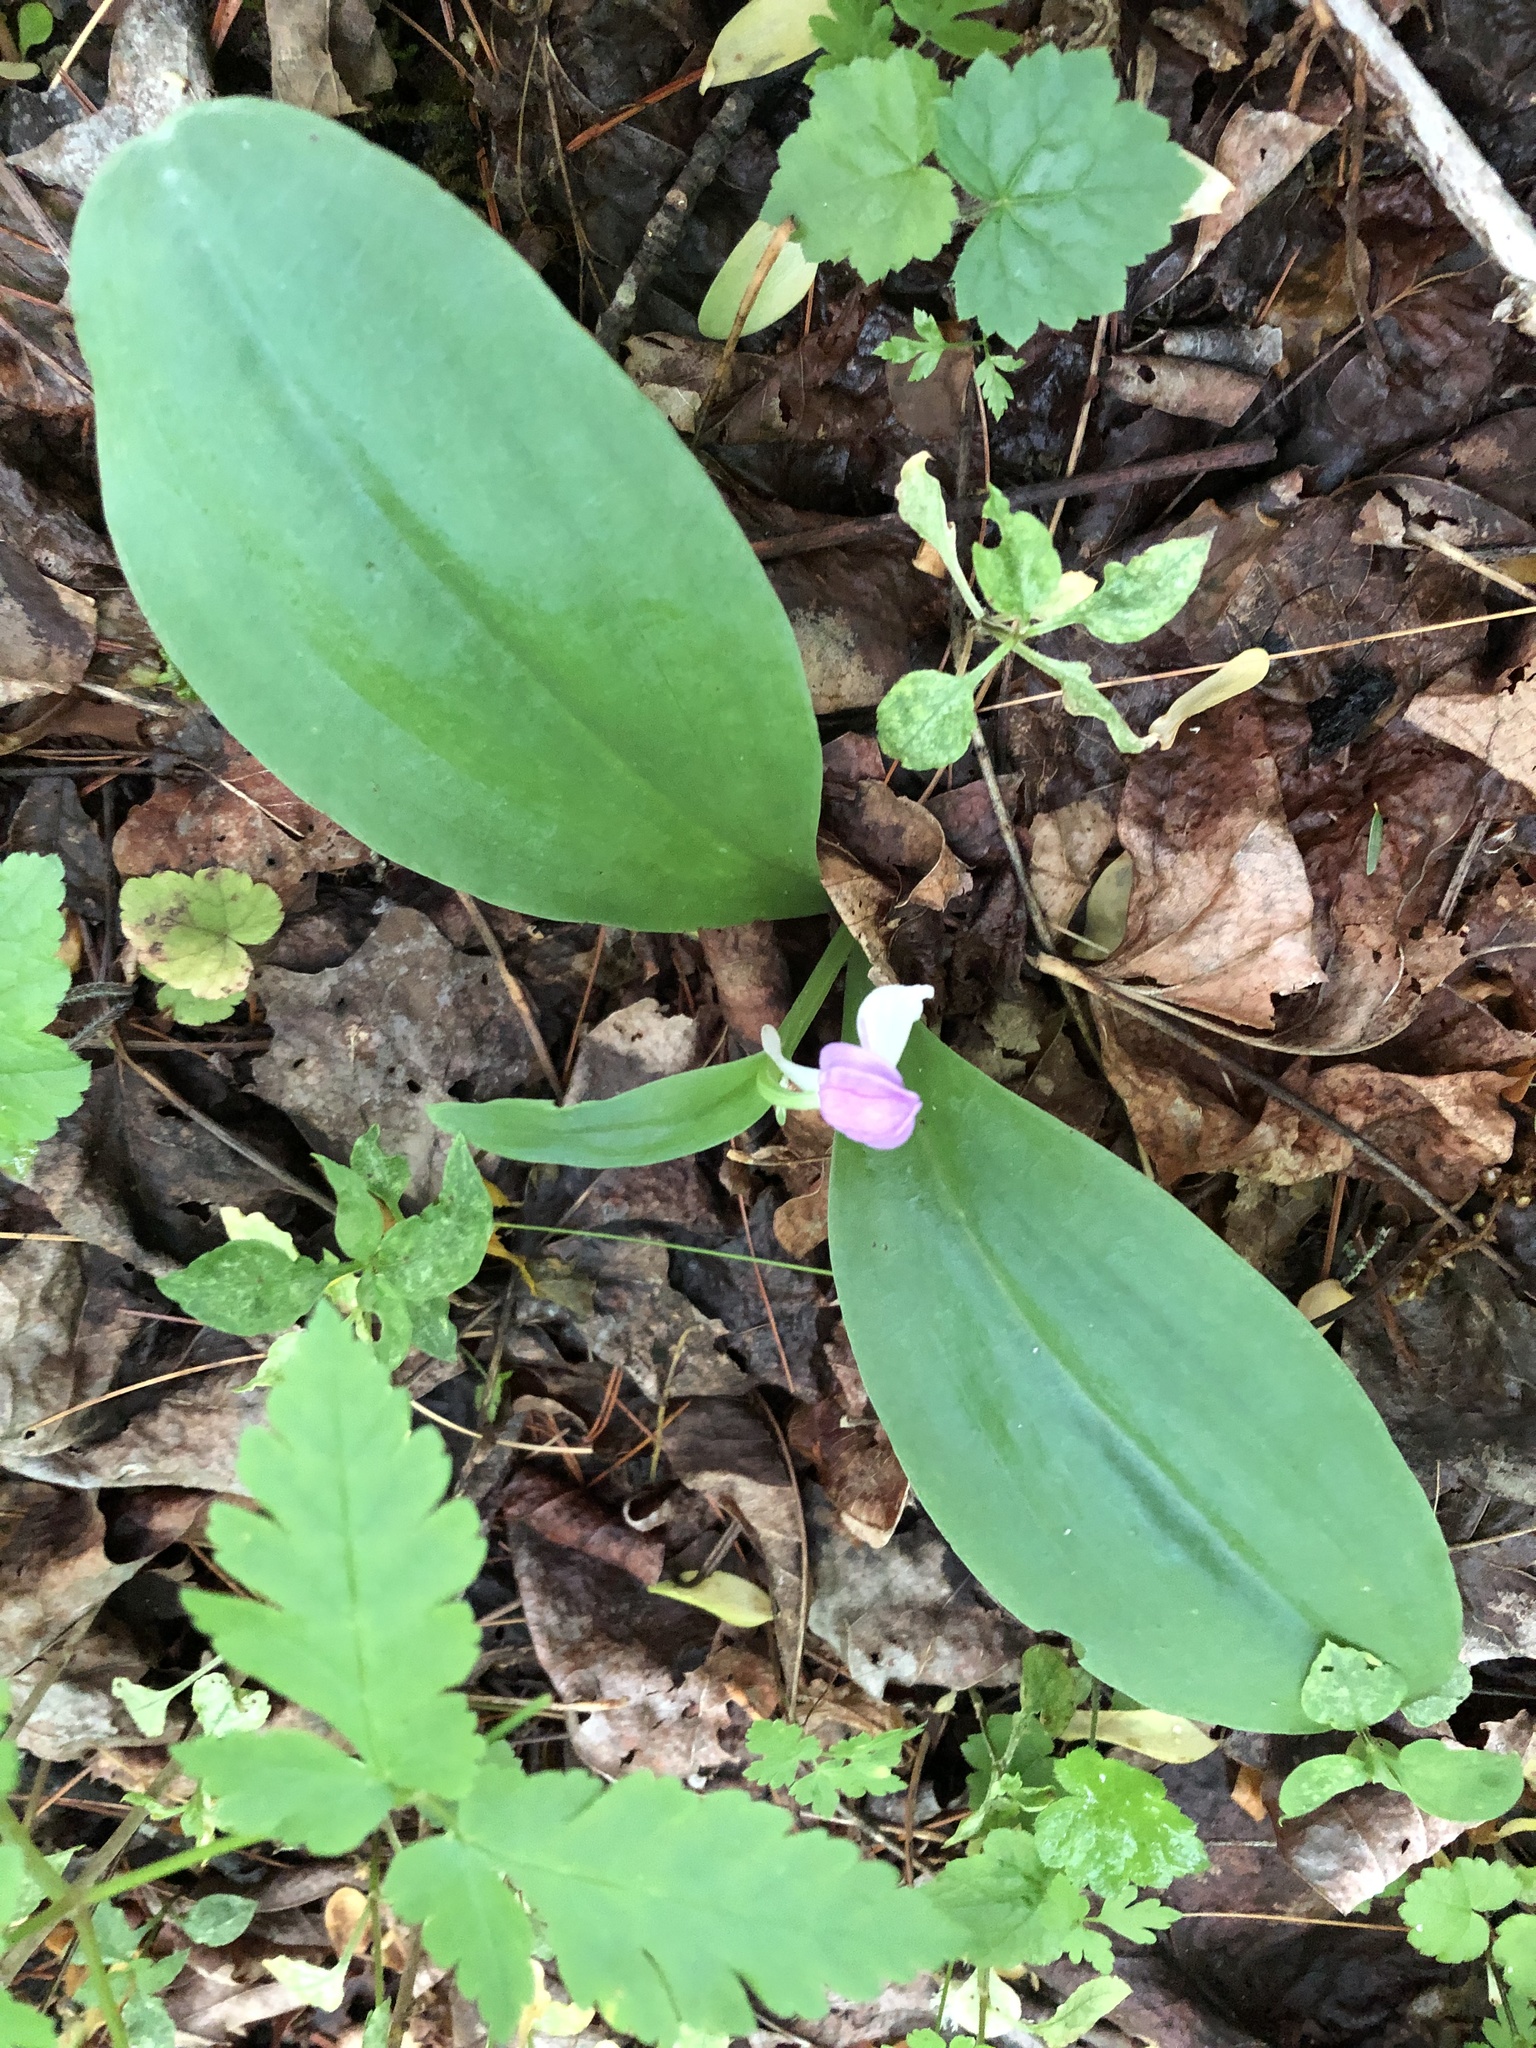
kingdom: Plantae
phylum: Tracheophyta
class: Liliopsida
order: Asparagales
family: Orchidaceae
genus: Galearis
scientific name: Galearis spectabilis
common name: Purple-hooded orchis
